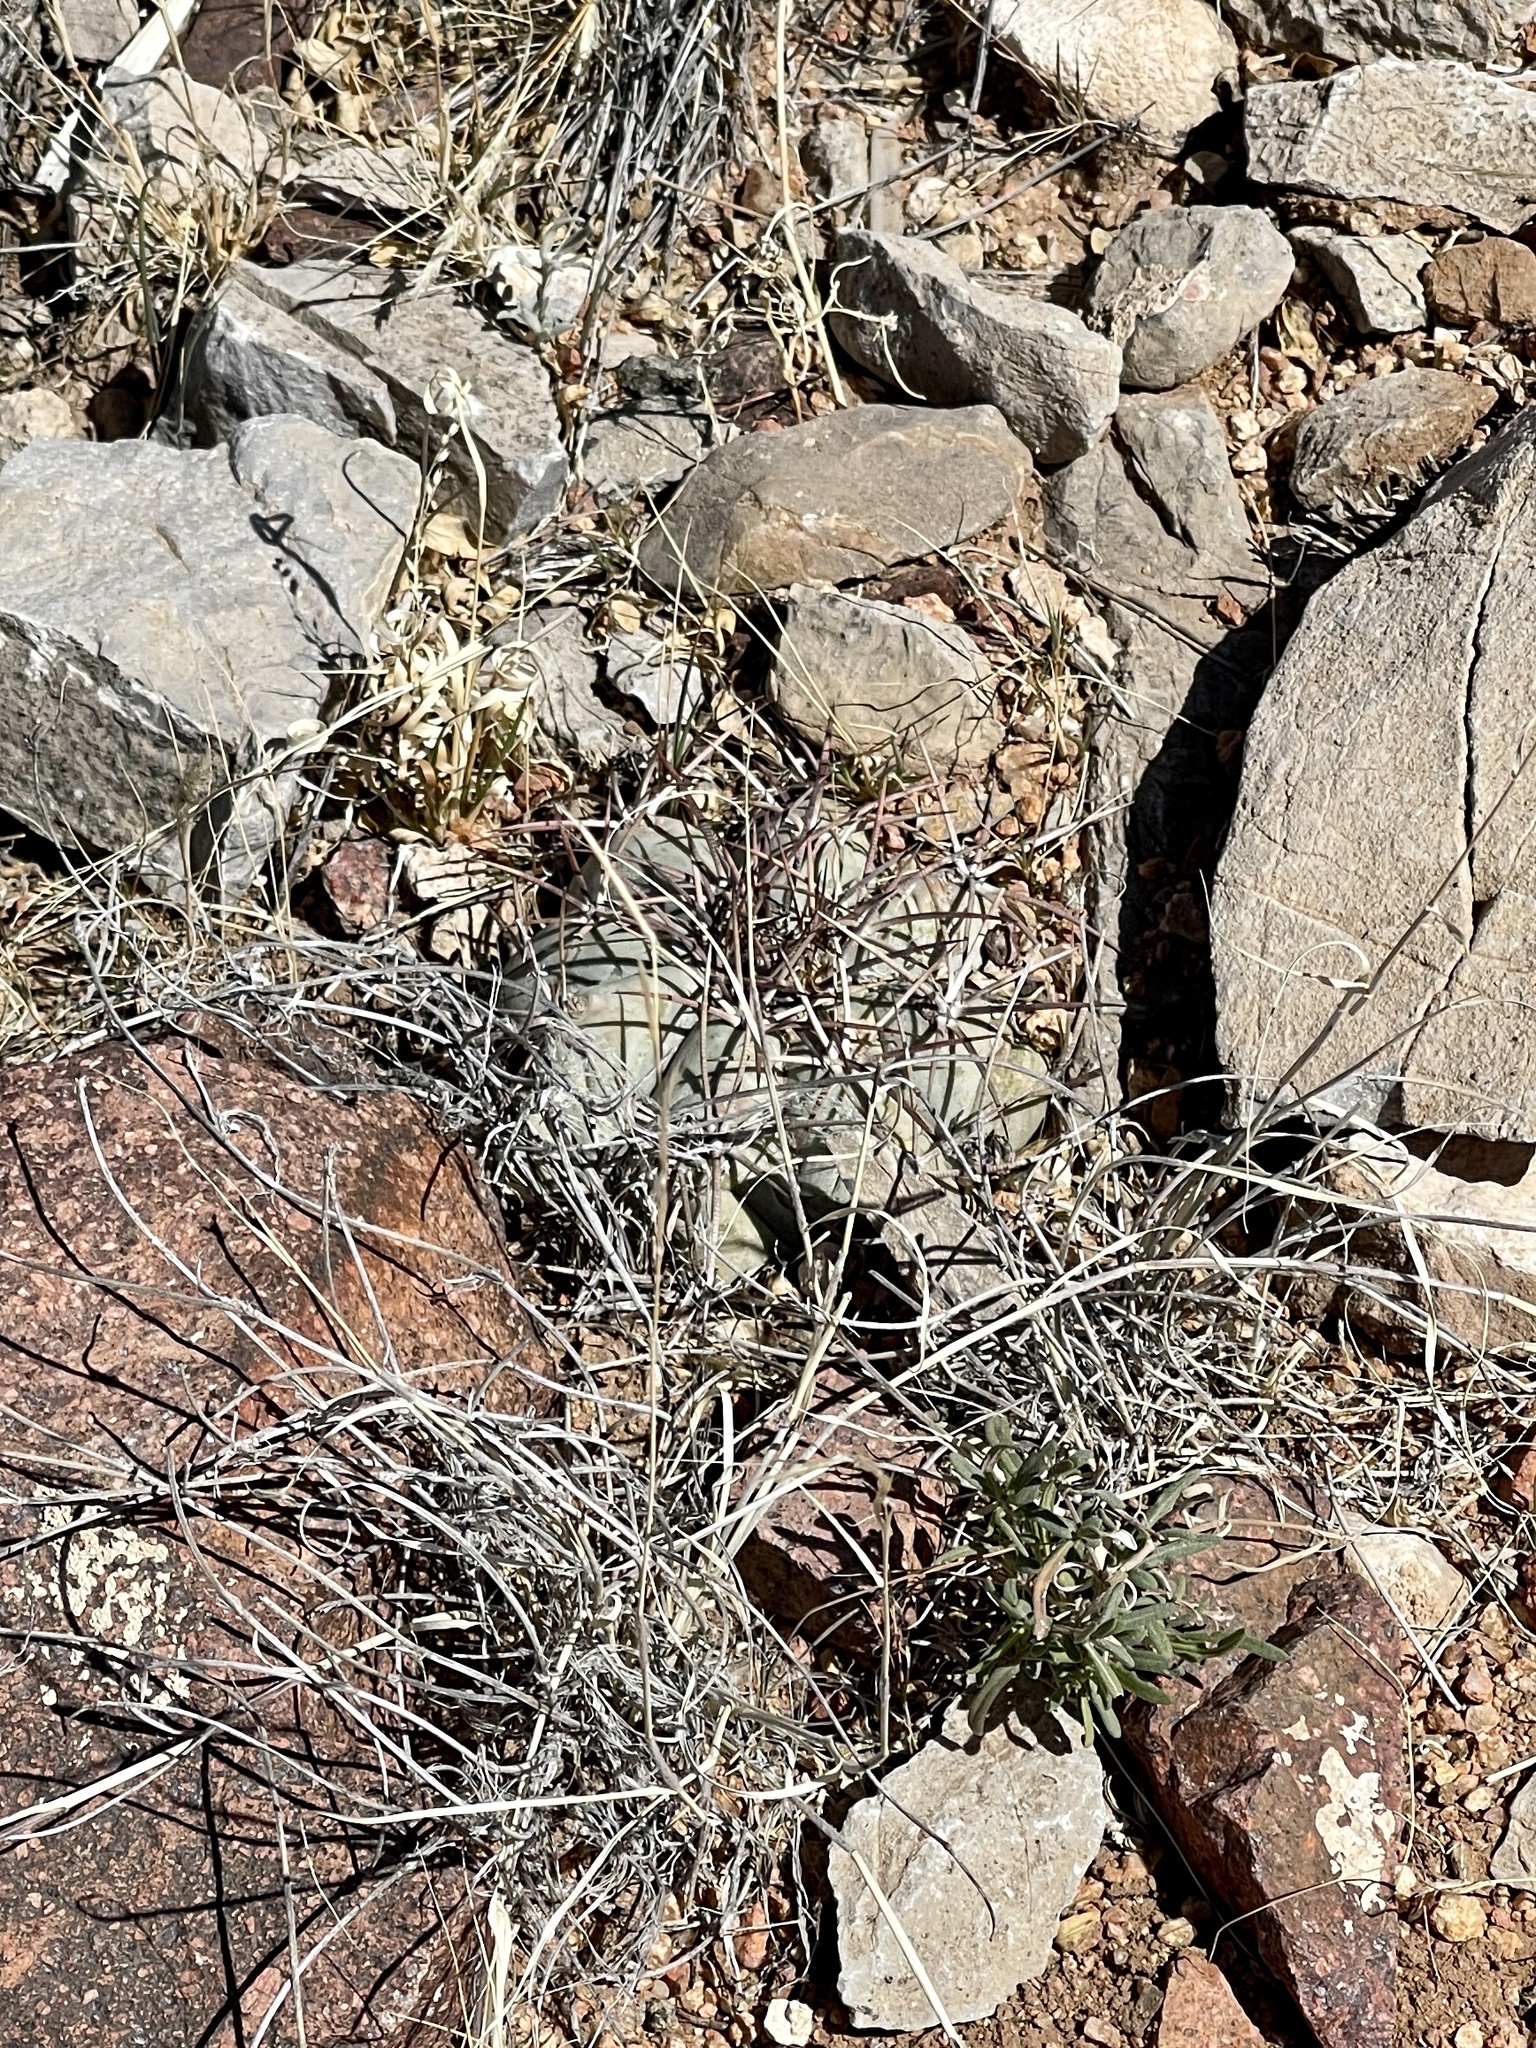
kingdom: Plantae
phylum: Tracheophyta
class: Magnoliopsida
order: Caryophyllales
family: Cactaceae
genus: Echinocactus
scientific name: Echinocactus horizonthalonius
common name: Devilshead
